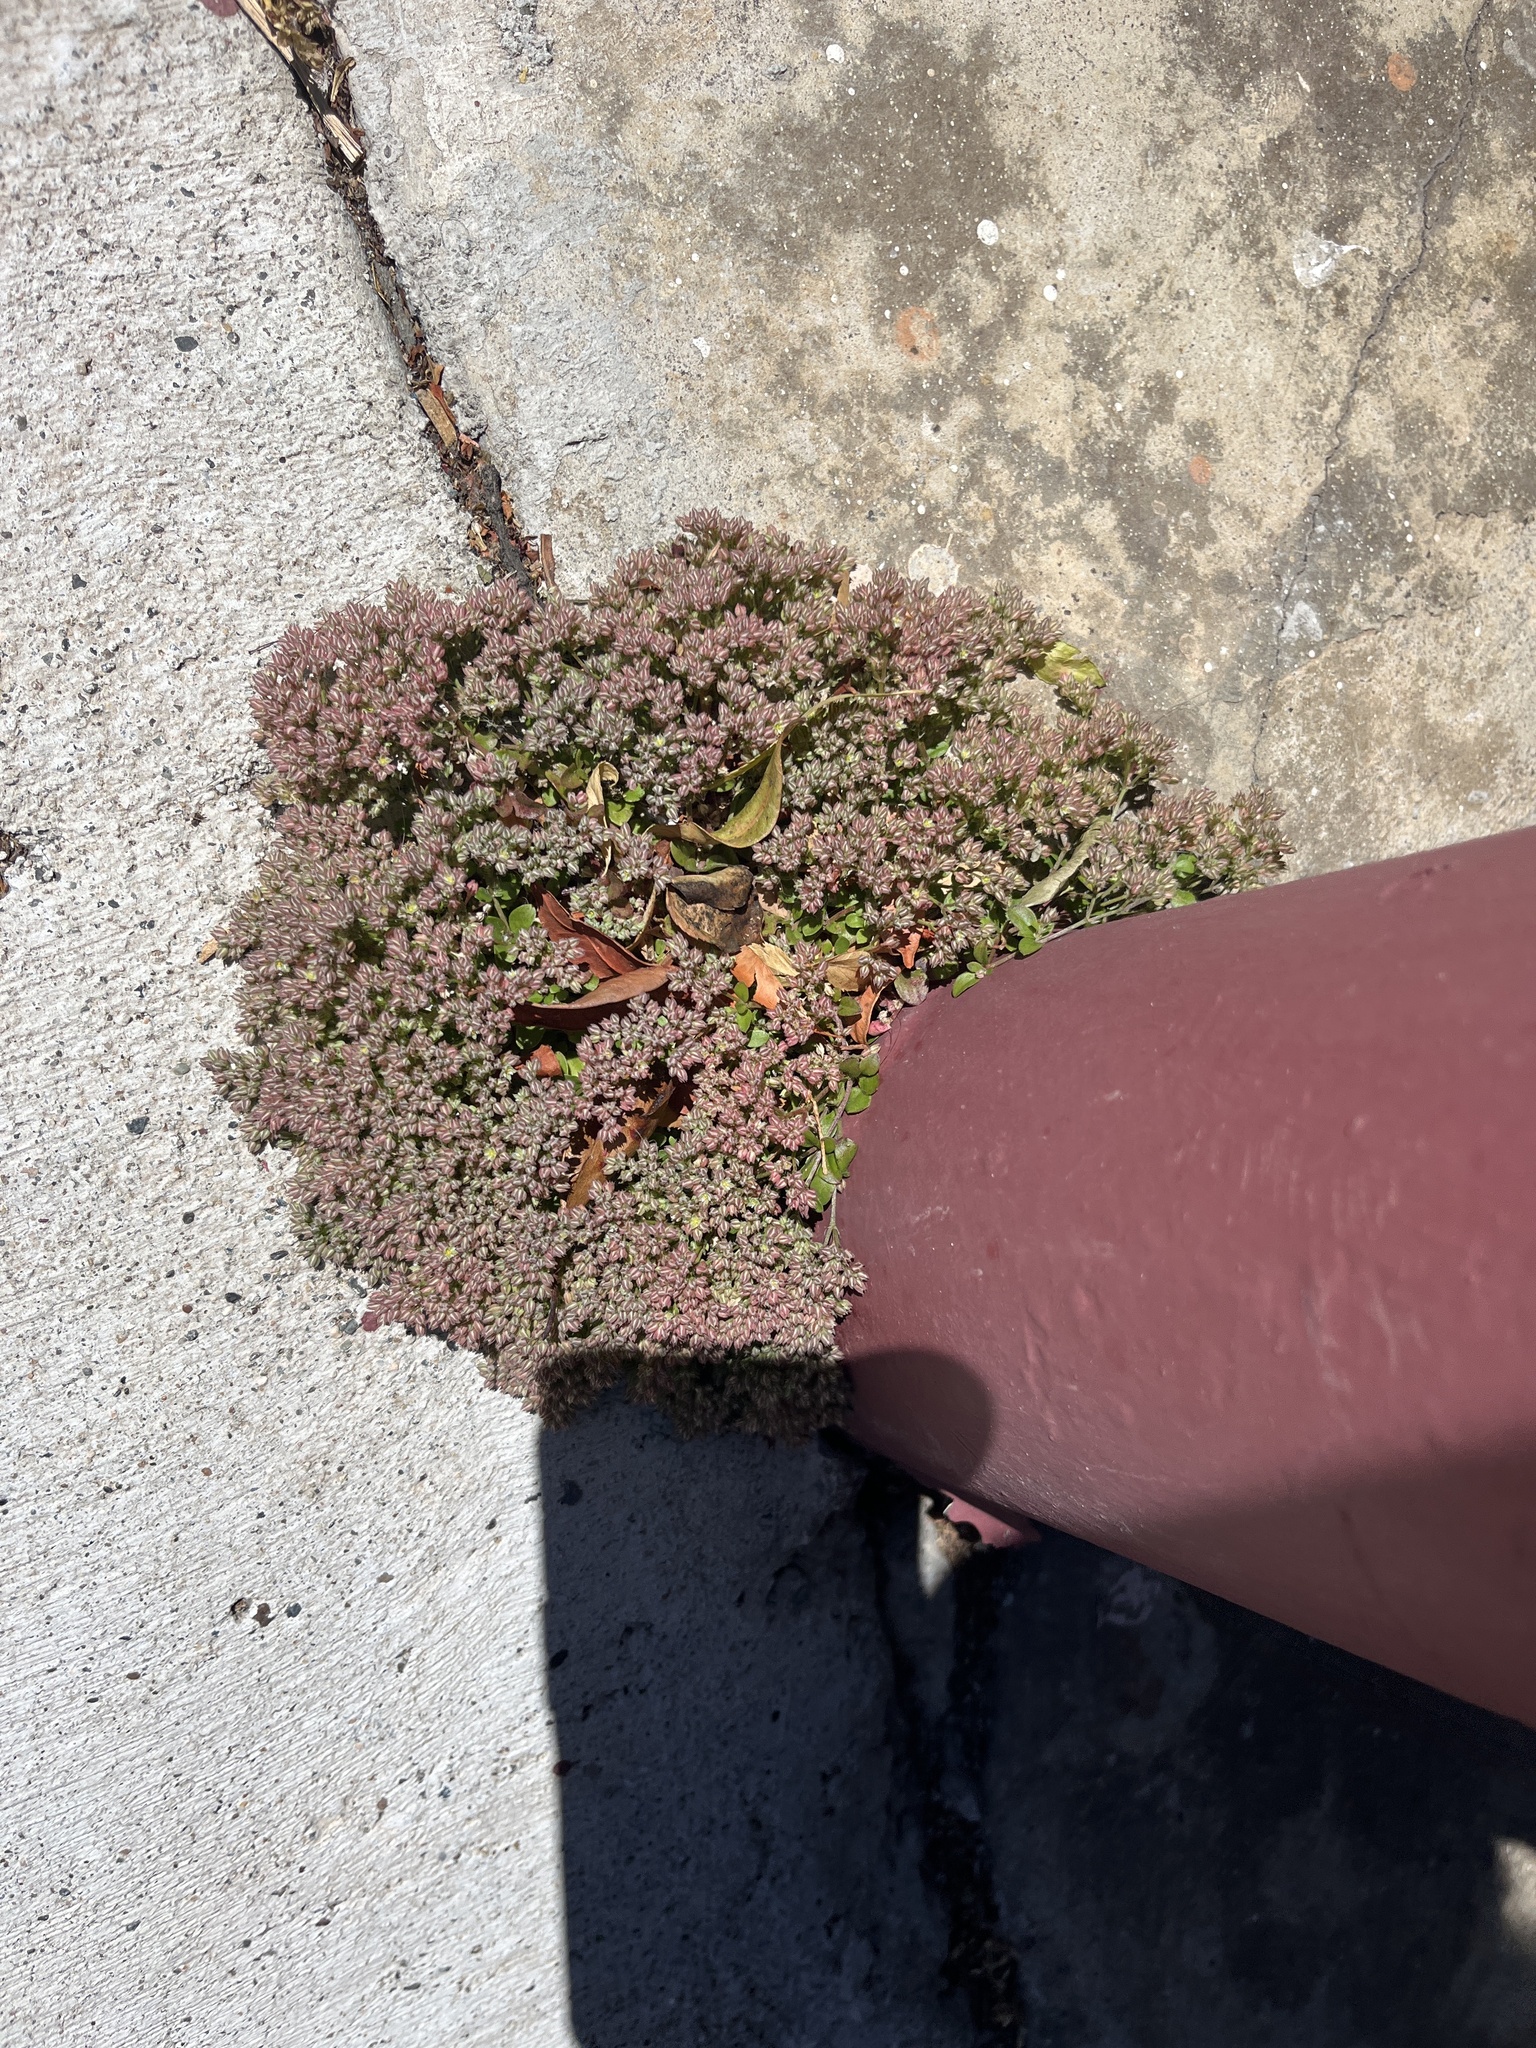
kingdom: Plantae
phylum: Tracheophyta
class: Magnoliopsida
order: Caryophyllales
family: Caryophyllaceae
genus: Polycarpon
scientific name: Polycarpon tetraphyllum
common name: Four-leaved all-seed
